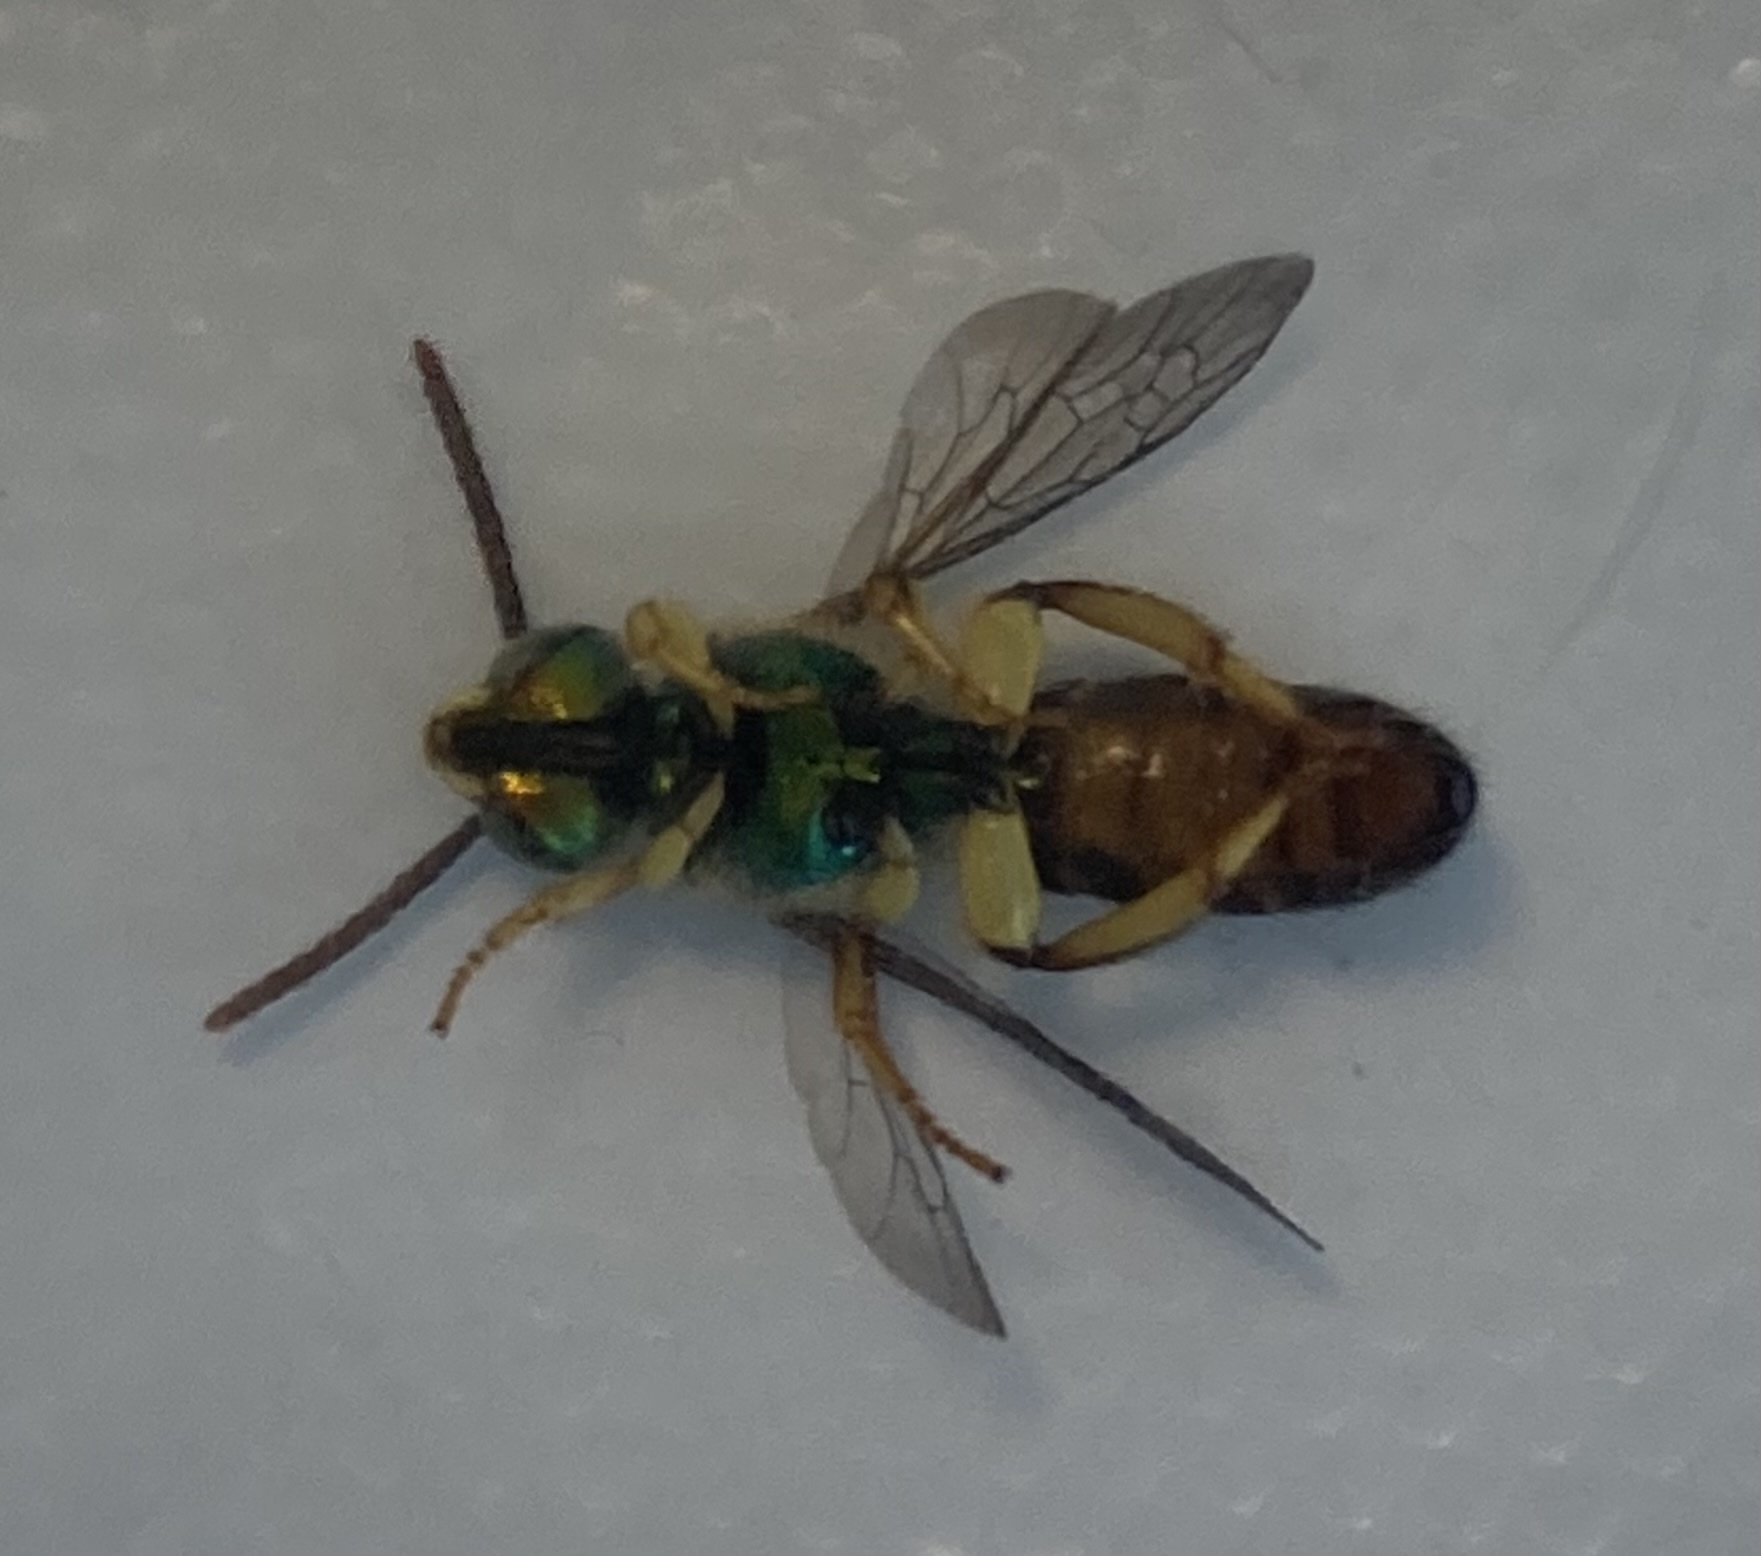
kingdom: Animalia
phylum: Arthropoda
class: Insecta
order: Hymenoptera
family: Halictidae
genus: Agapostemon
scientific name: Agapostemon poeyi
